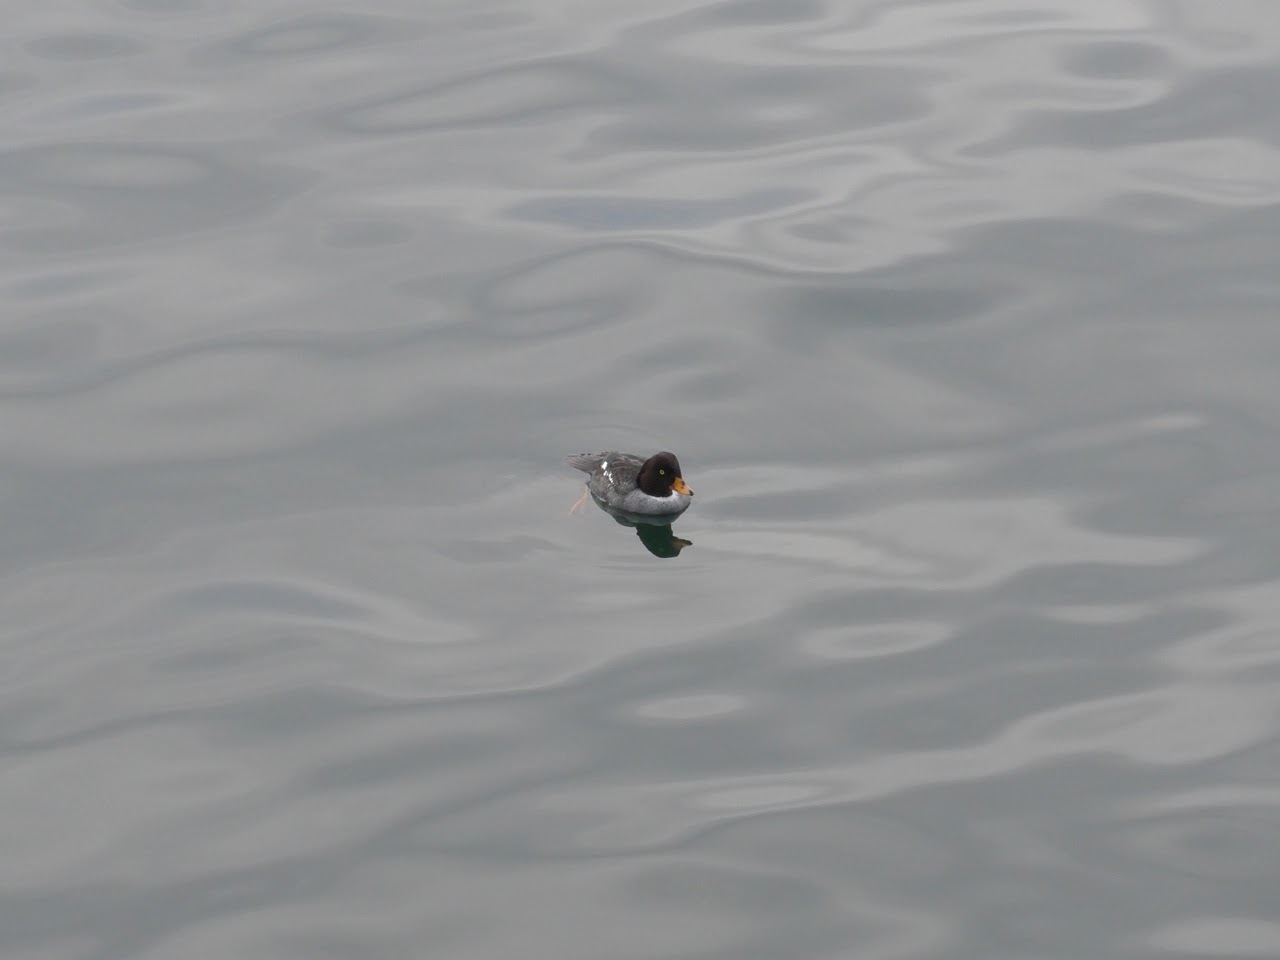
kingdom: Animalia
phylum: Chordata
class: Aves
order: Anseriformes
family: Anatidae
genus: Bucephala
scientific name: Bucephala islandica
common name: Barrow's goldeneye
